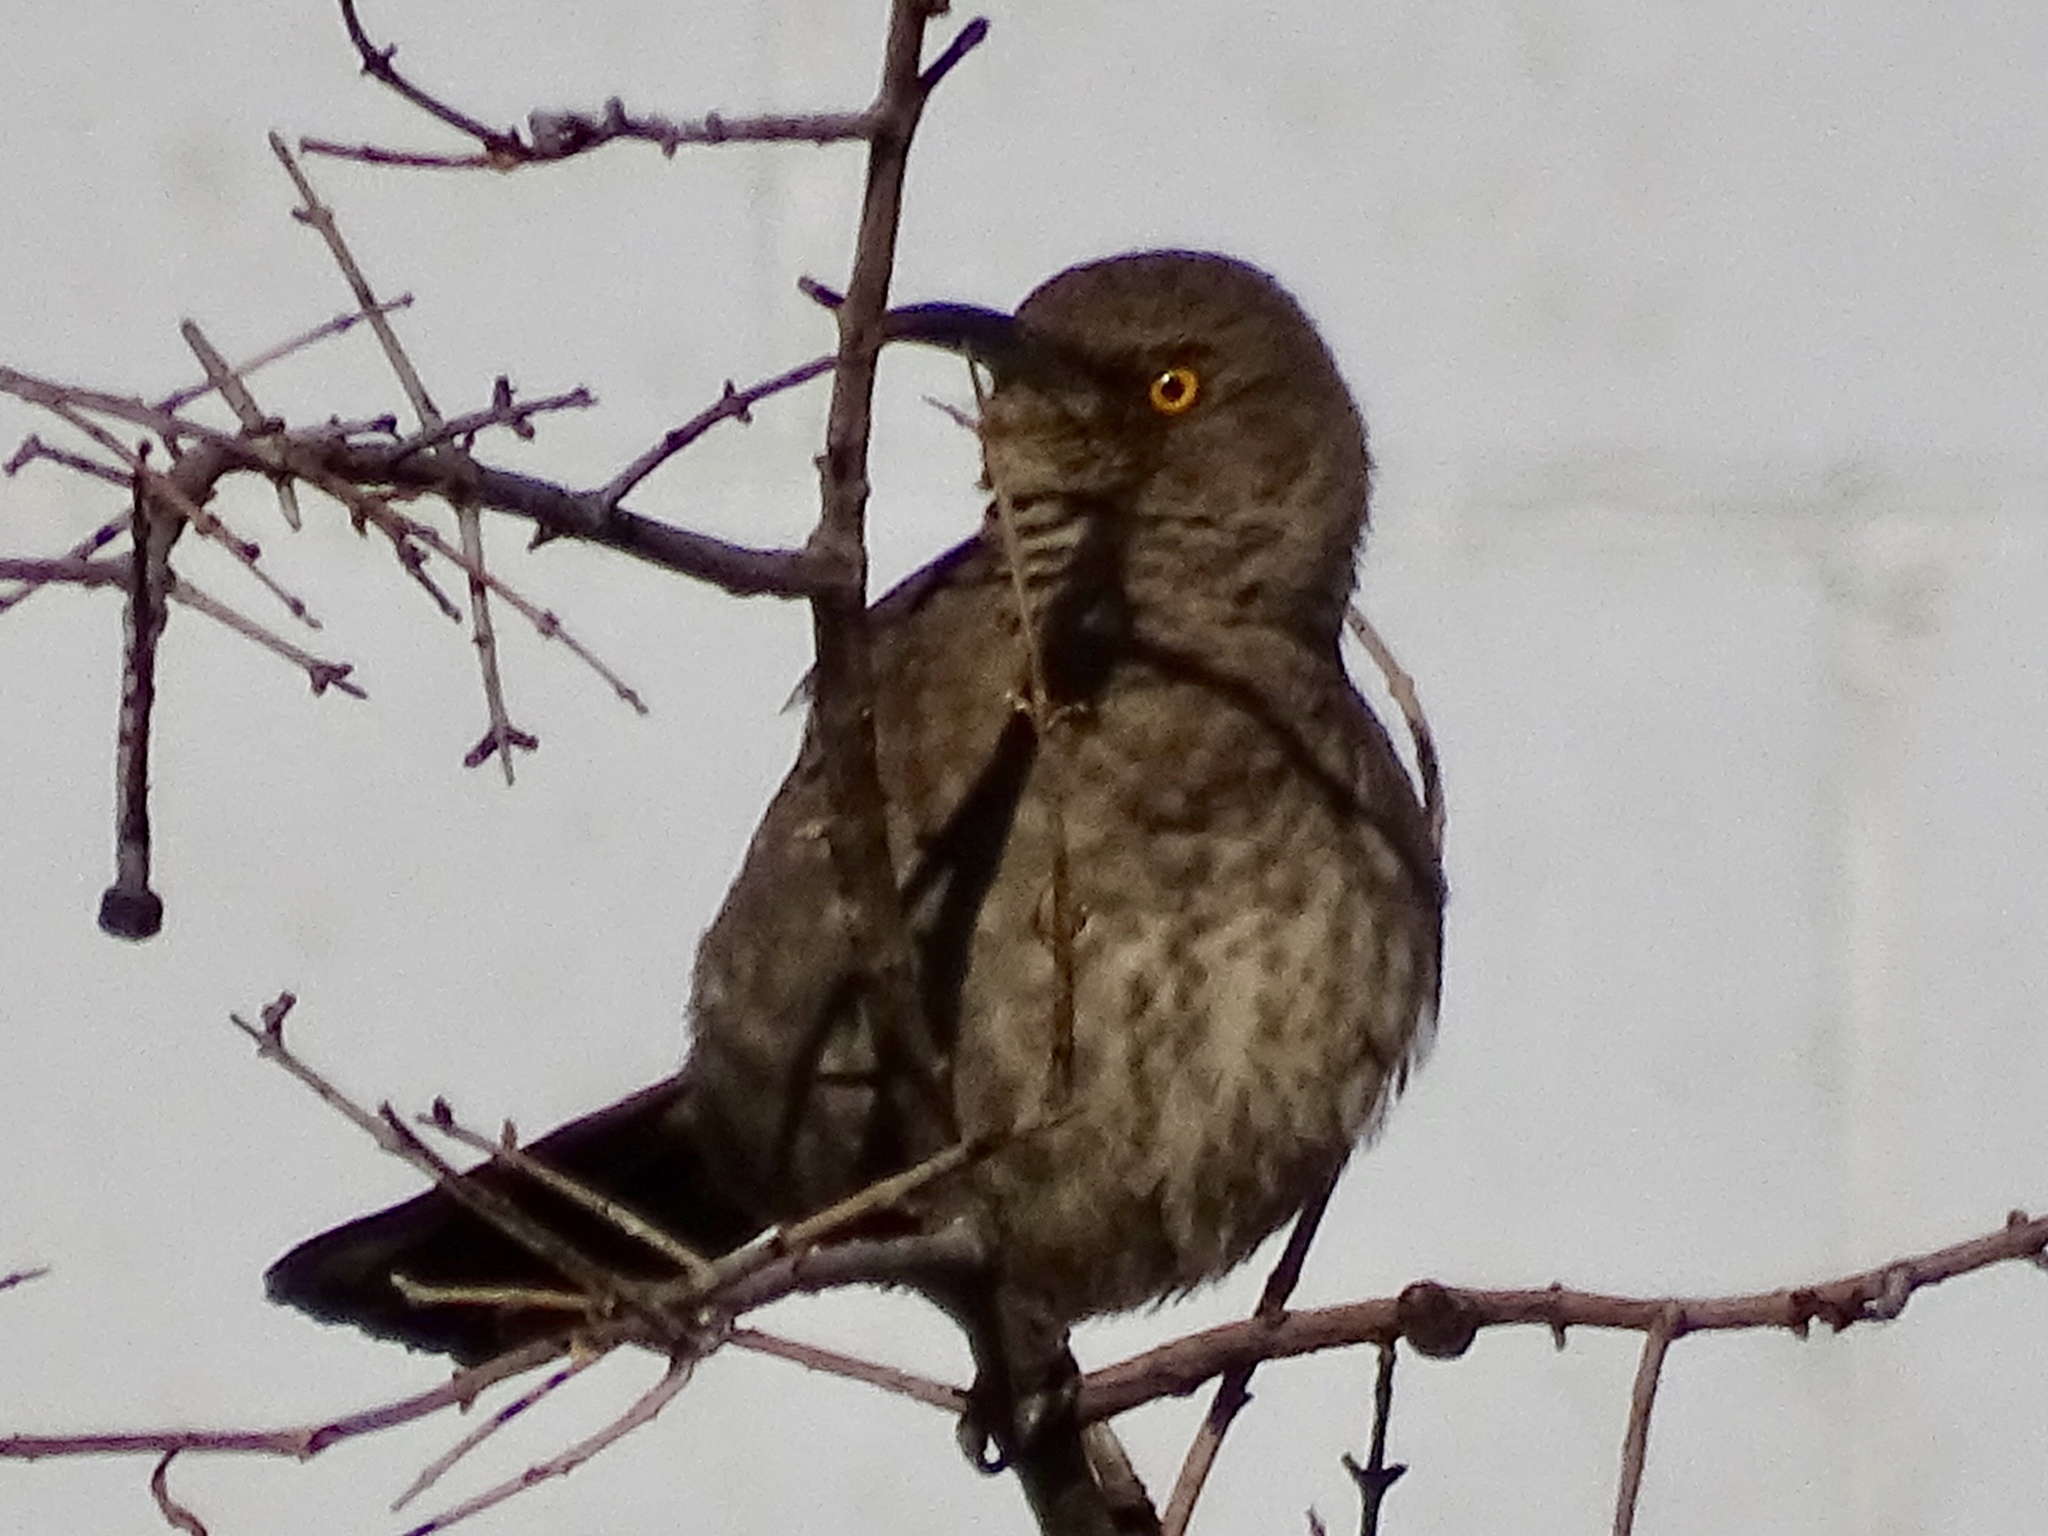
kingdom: Animalia
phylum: Chordata
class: Aves
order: Passeriformes
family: Mimidae
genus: Toxostoma
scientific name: Toxostoma curvirostre
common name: Curve-billed thrasher
